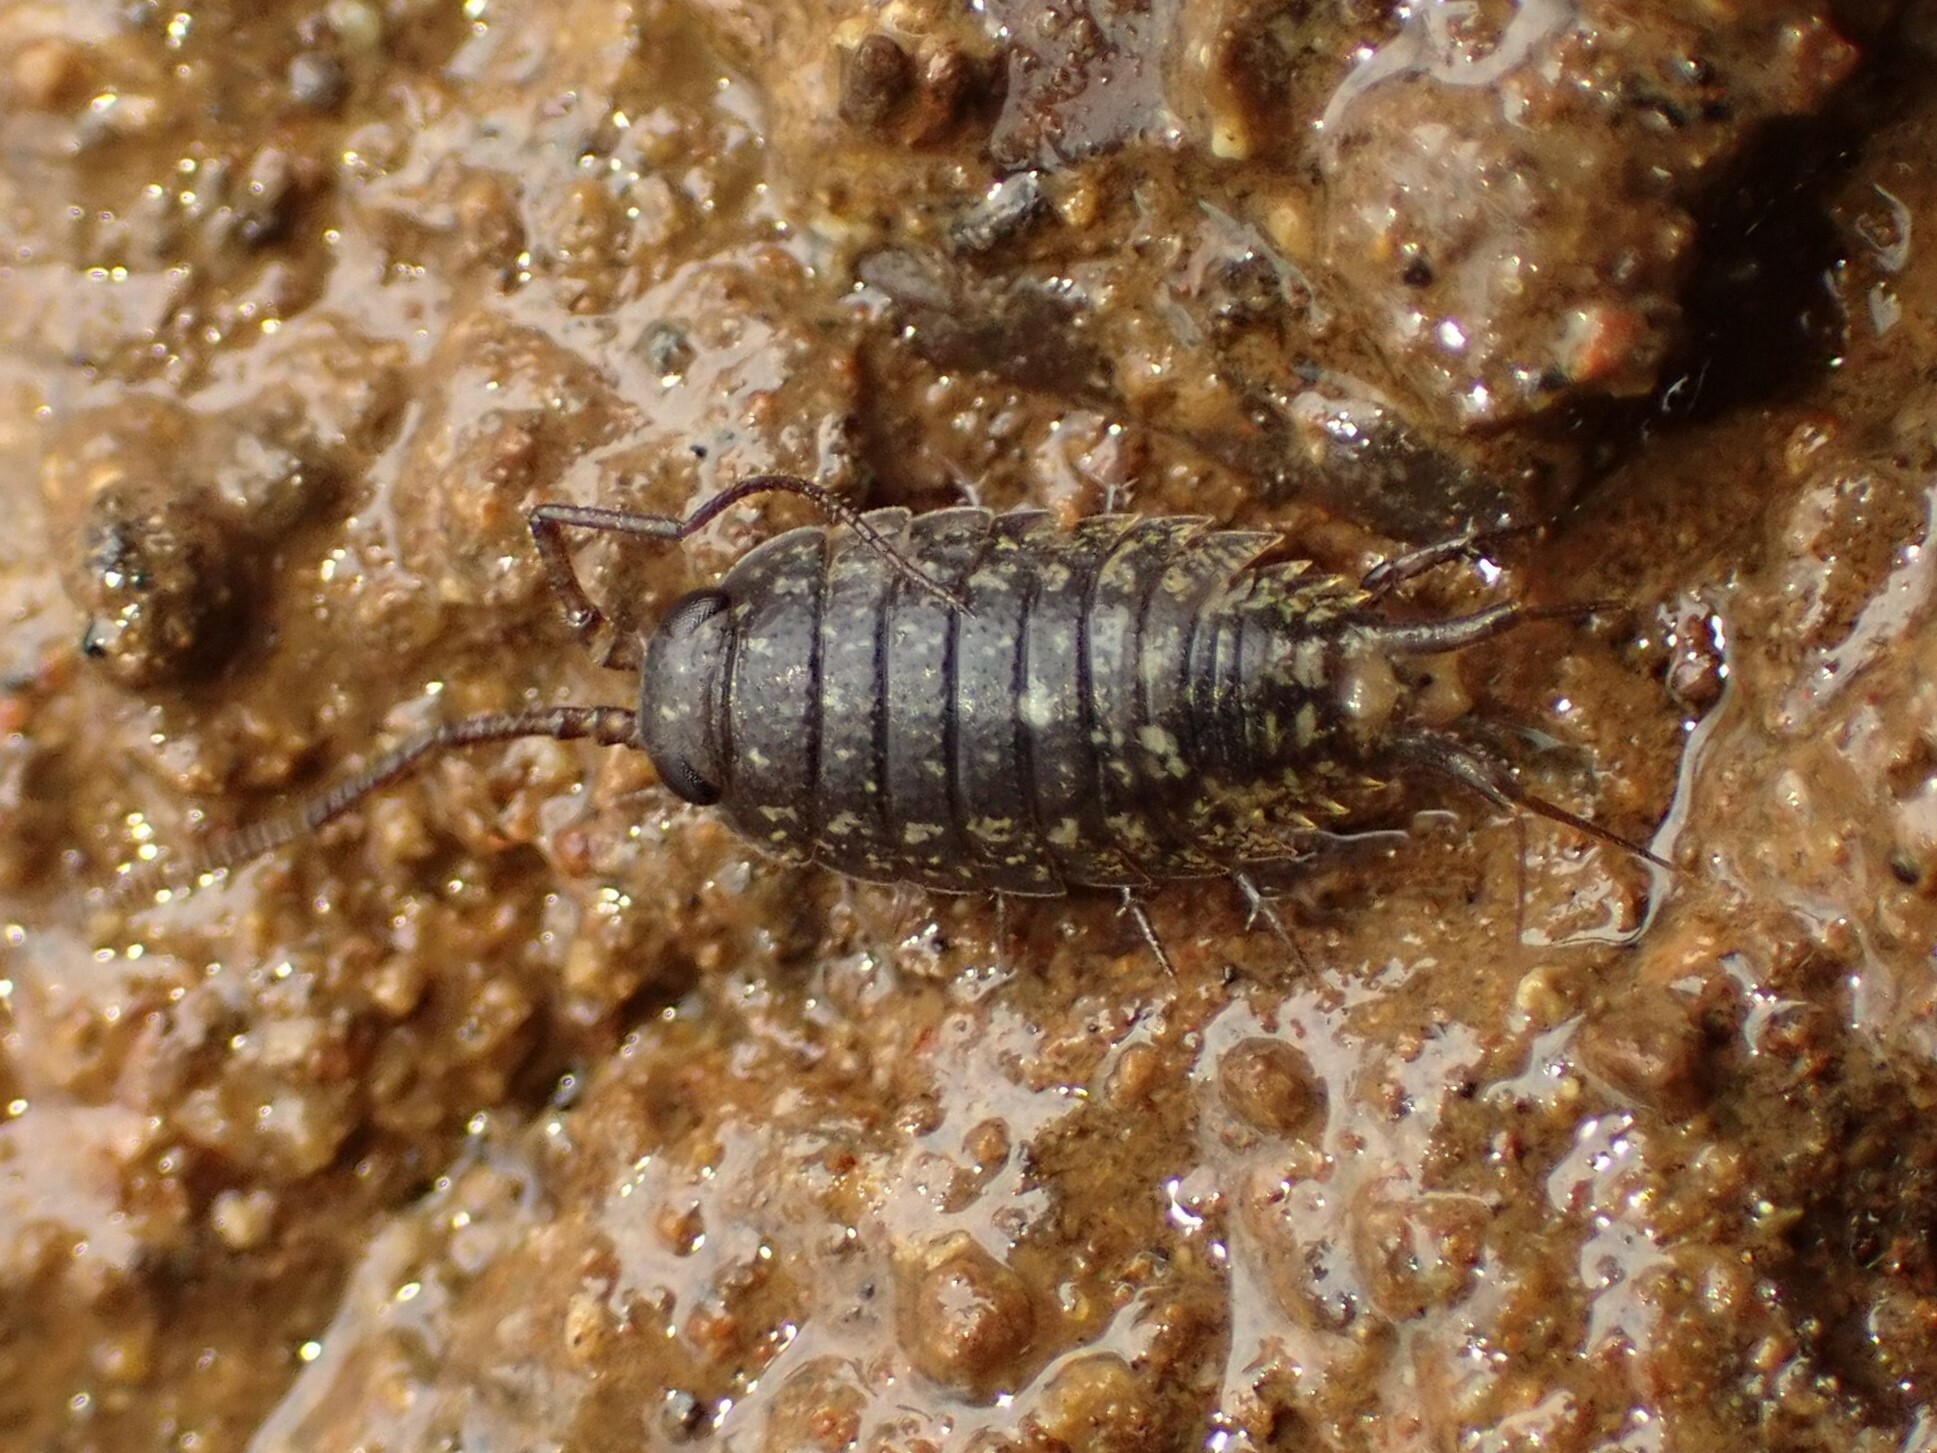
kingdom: Animalia
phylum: Arthropoda
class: Malacostraca
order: Isopoda
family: Ligiidae
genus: Ligia
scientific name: Ligia novizealandiae
